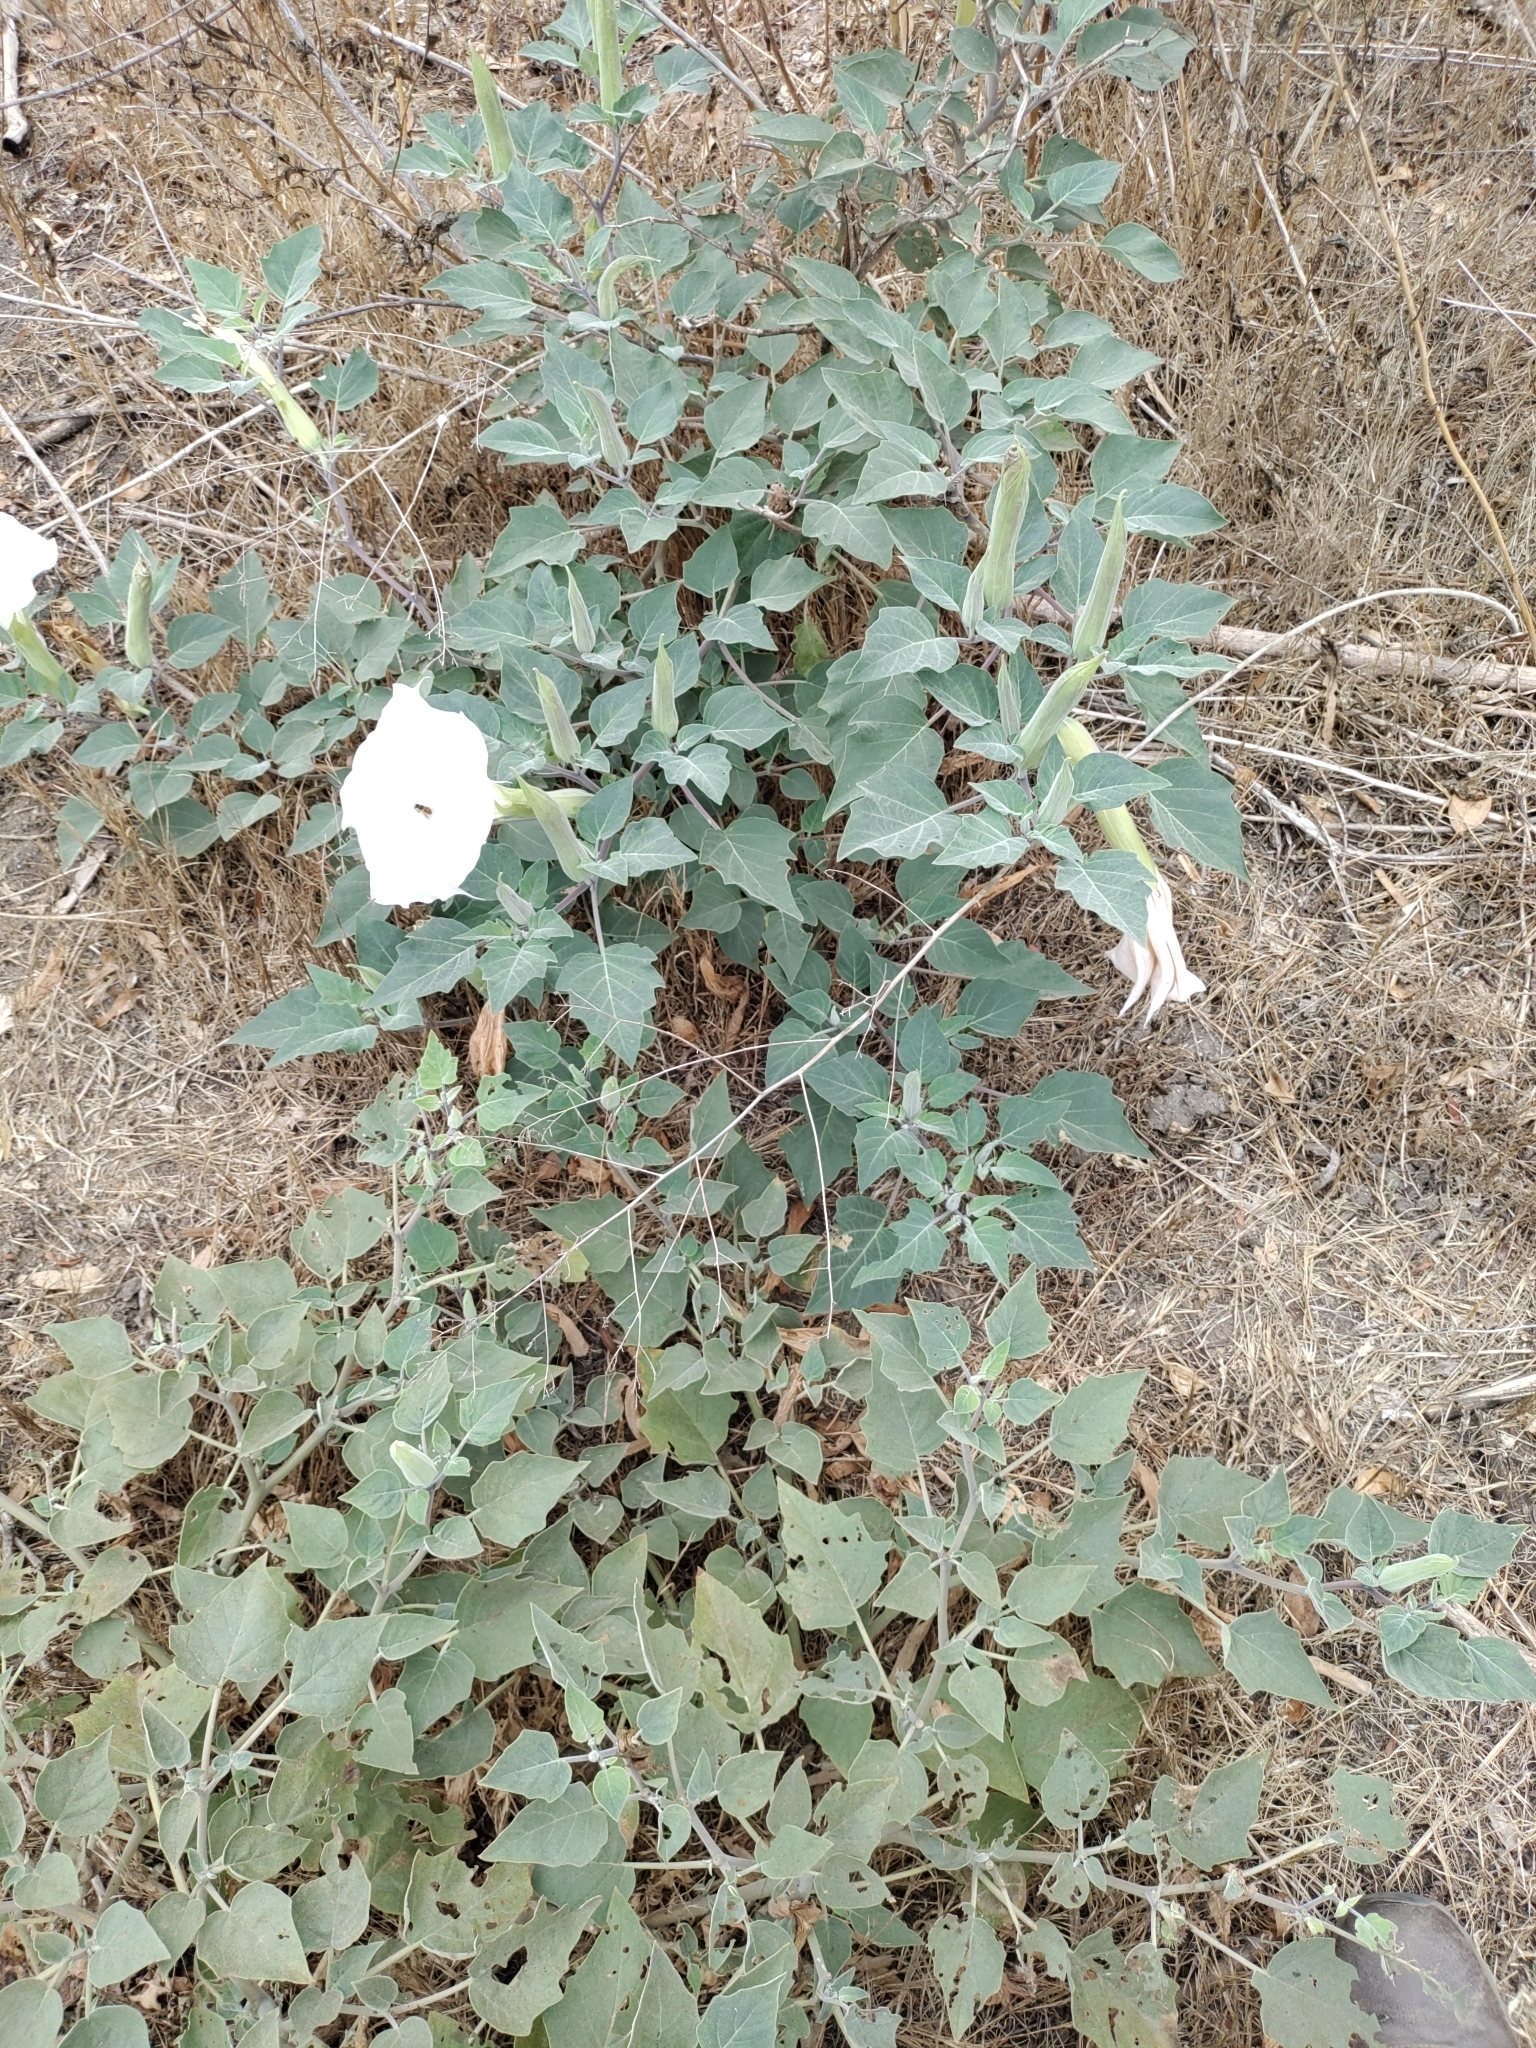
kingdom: Plantae
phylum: Tracheophyta
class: Magnoliopsida
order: Solanales
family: Solanaceae
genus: Datura
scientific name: Datura wrightii
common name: Sacred thorn-apple
